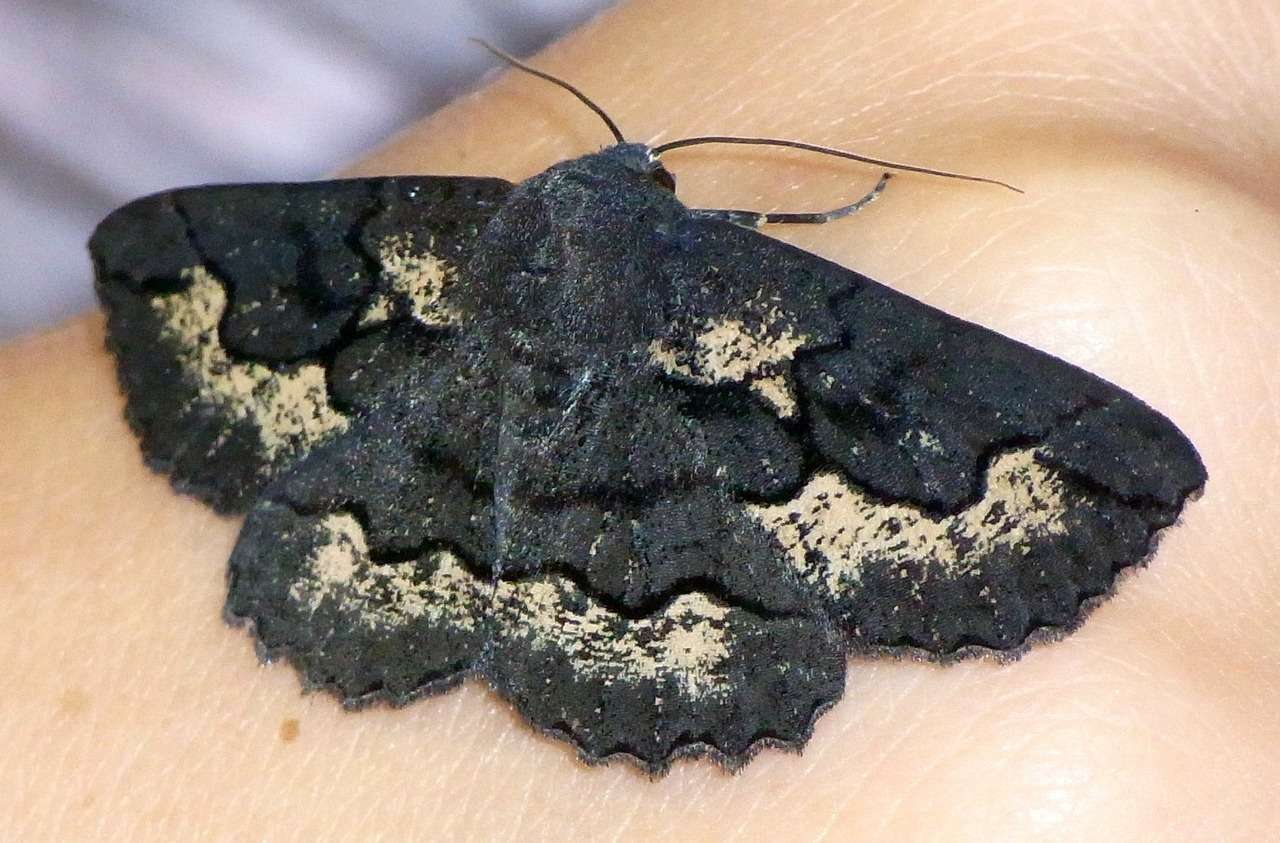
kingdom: Animalia
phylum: Arthropoda
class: Insecta
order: Lepidoptera
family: Geometridae
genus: Melanodes
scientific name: Melanodes anthracitaria
